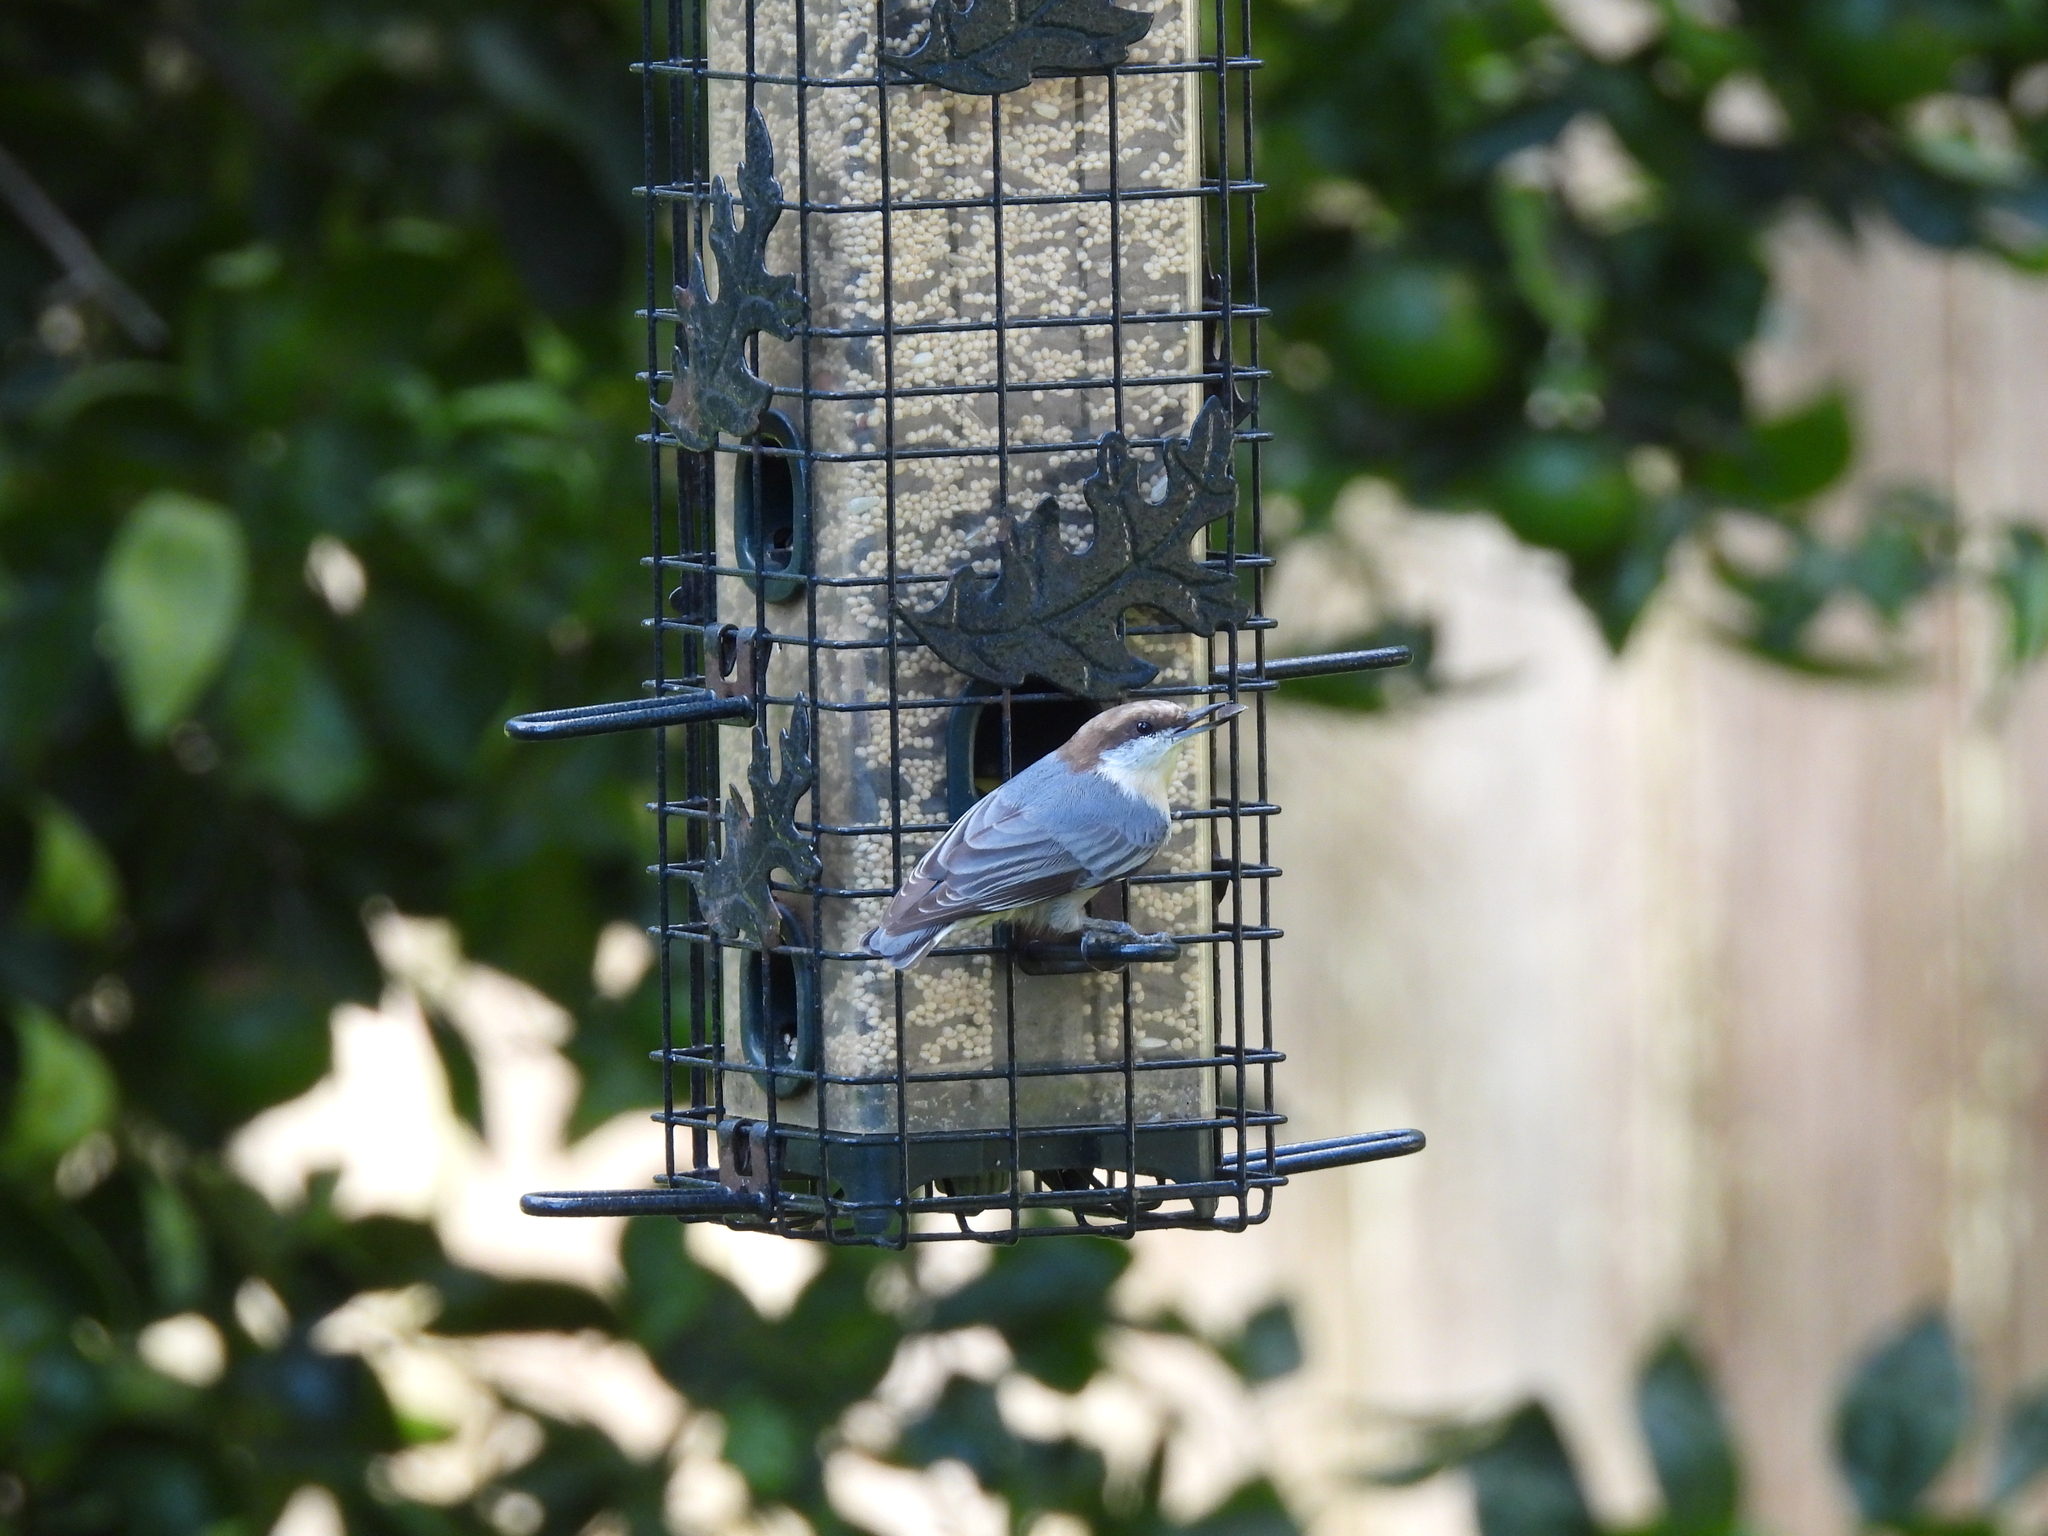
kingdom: Animalia
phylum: Chordata
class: Aves
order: Passeriformes
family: Sittidae
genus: Sitta
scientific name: Sitta pusilla
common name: Brown-headed nuthatch
